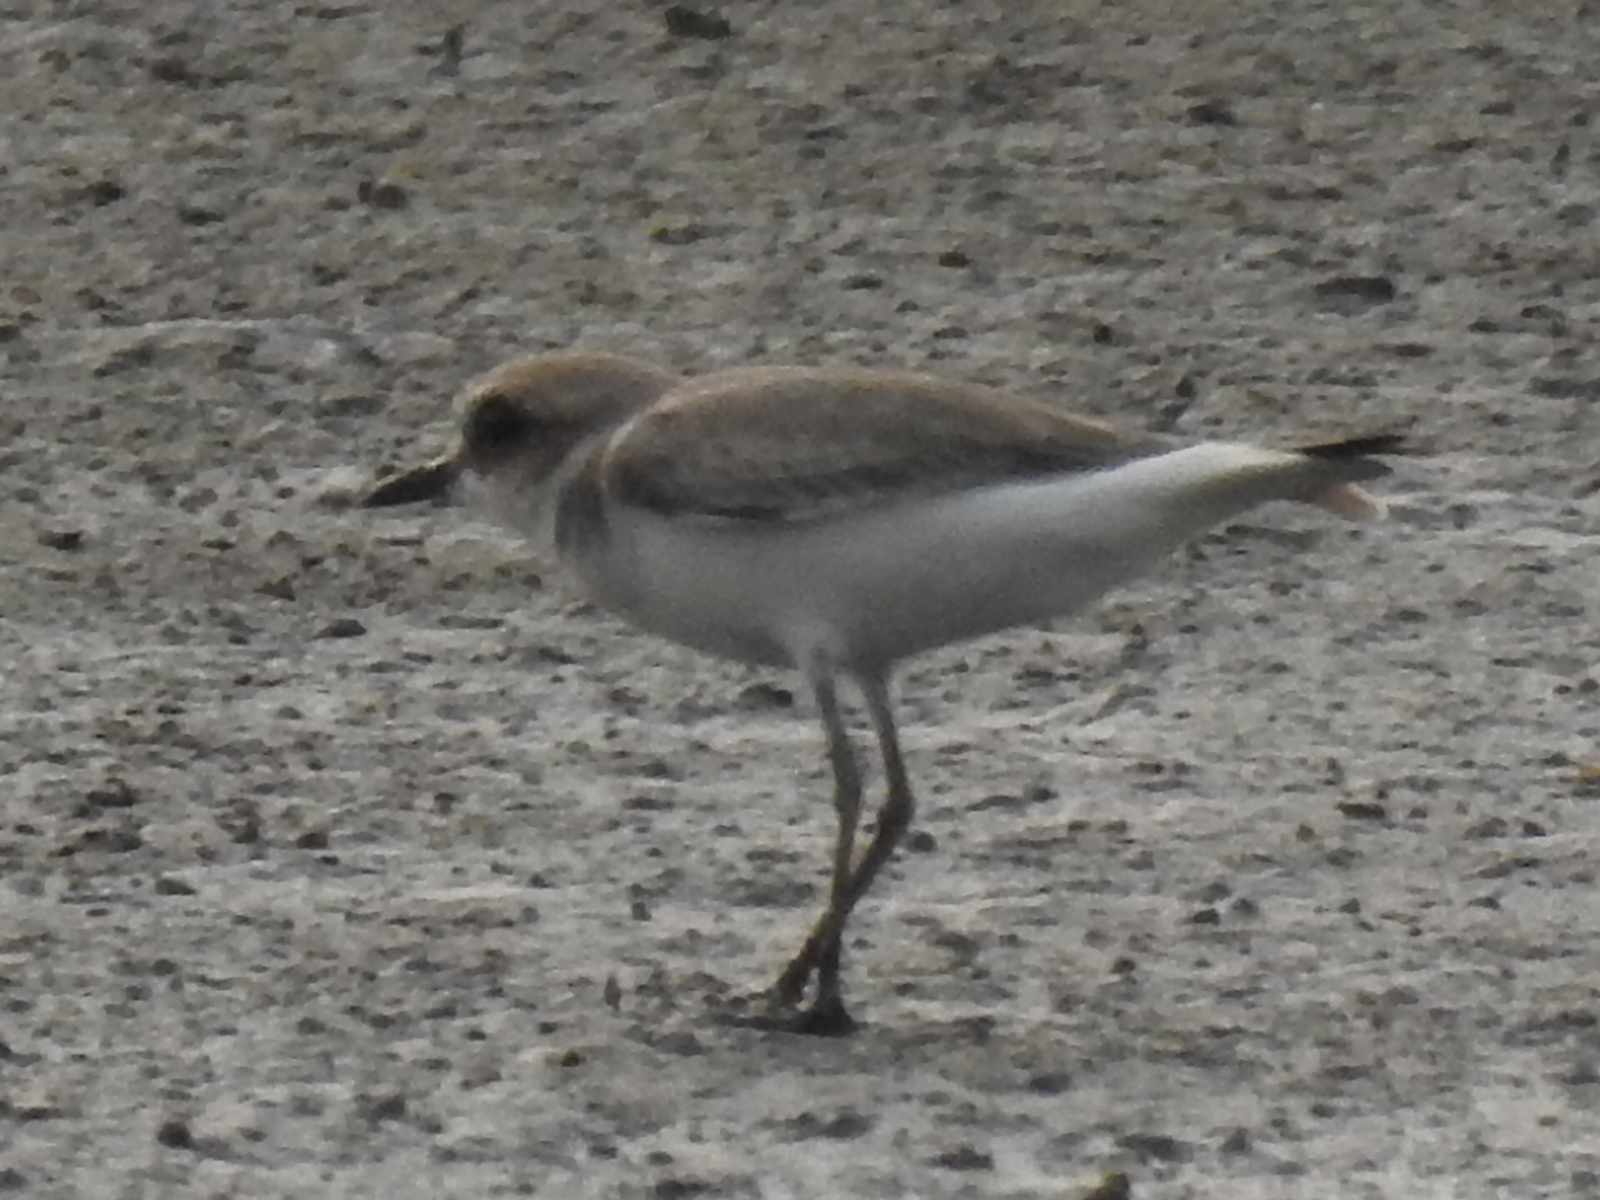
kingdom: Animalia
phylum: Chordata
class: Aves
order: Charadriiformes
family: Charadriidae
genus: Charadrius
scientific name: Charadrius leschenaultii
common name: Greater sand plover
